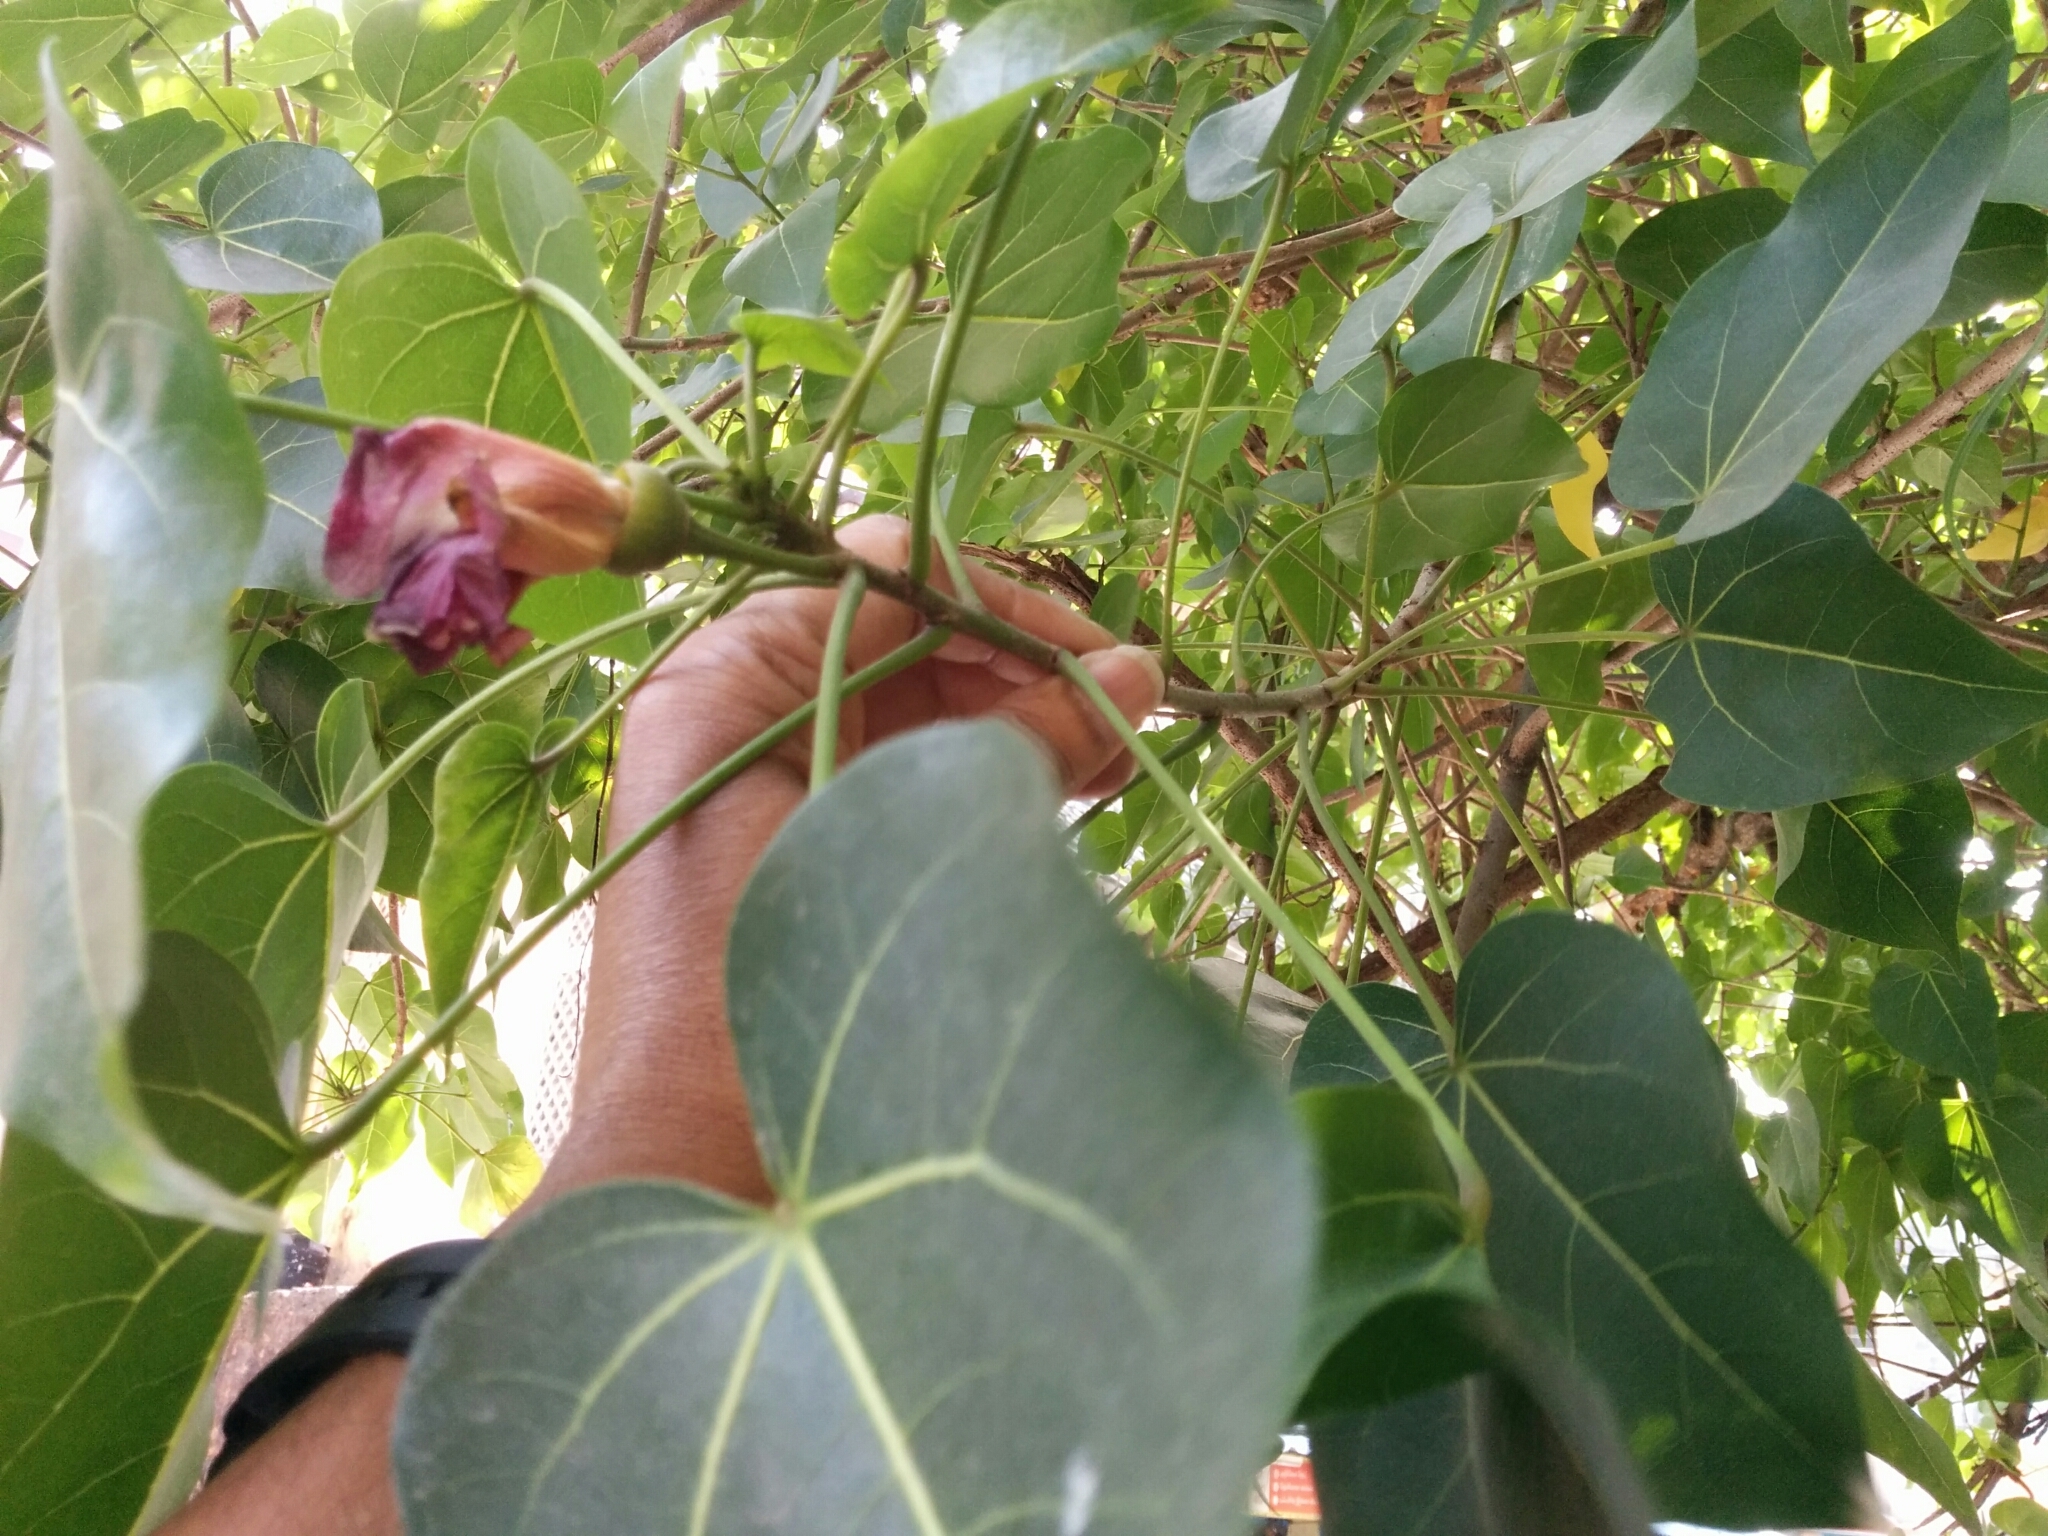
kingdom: Plantae
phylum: Tracheophyta
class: Magnoliopsida
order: Malvales
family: Malvaceae
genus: Thespesia
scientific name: Thespesia populnea
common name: Seaside mahoe
